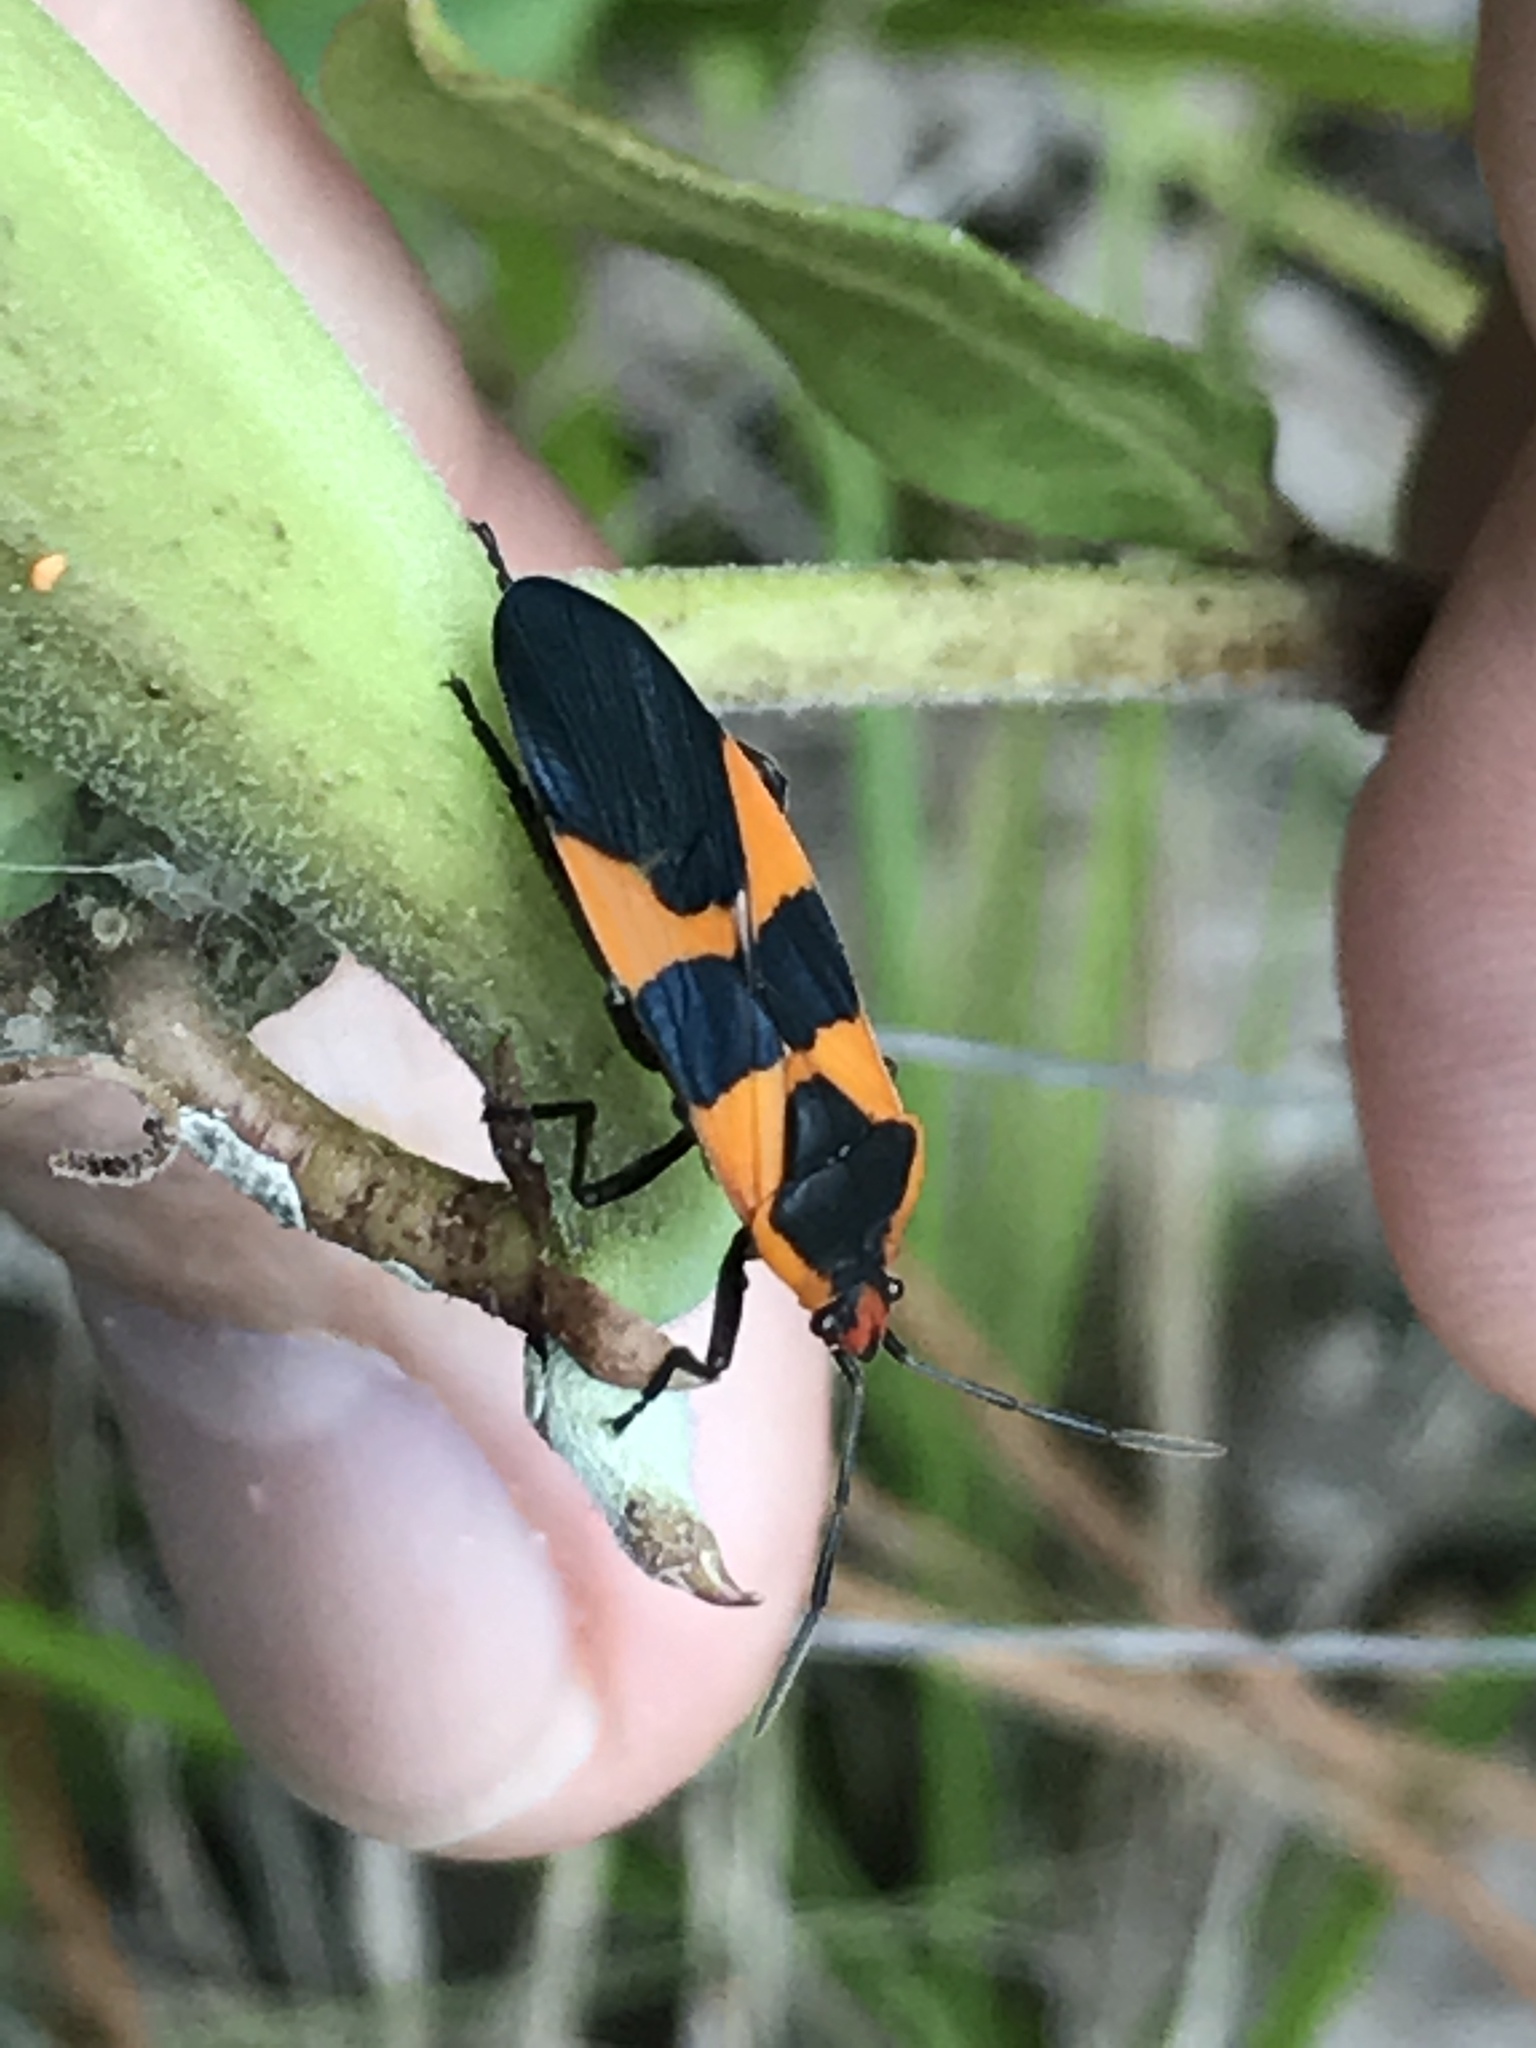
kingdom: Animalia
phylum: Arthropoda
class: Insecta
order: Hemiptera
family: Lygaeidae
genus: Oncopeltus
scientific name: Oncopeltus fasciatus
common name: Large milkweed bug
